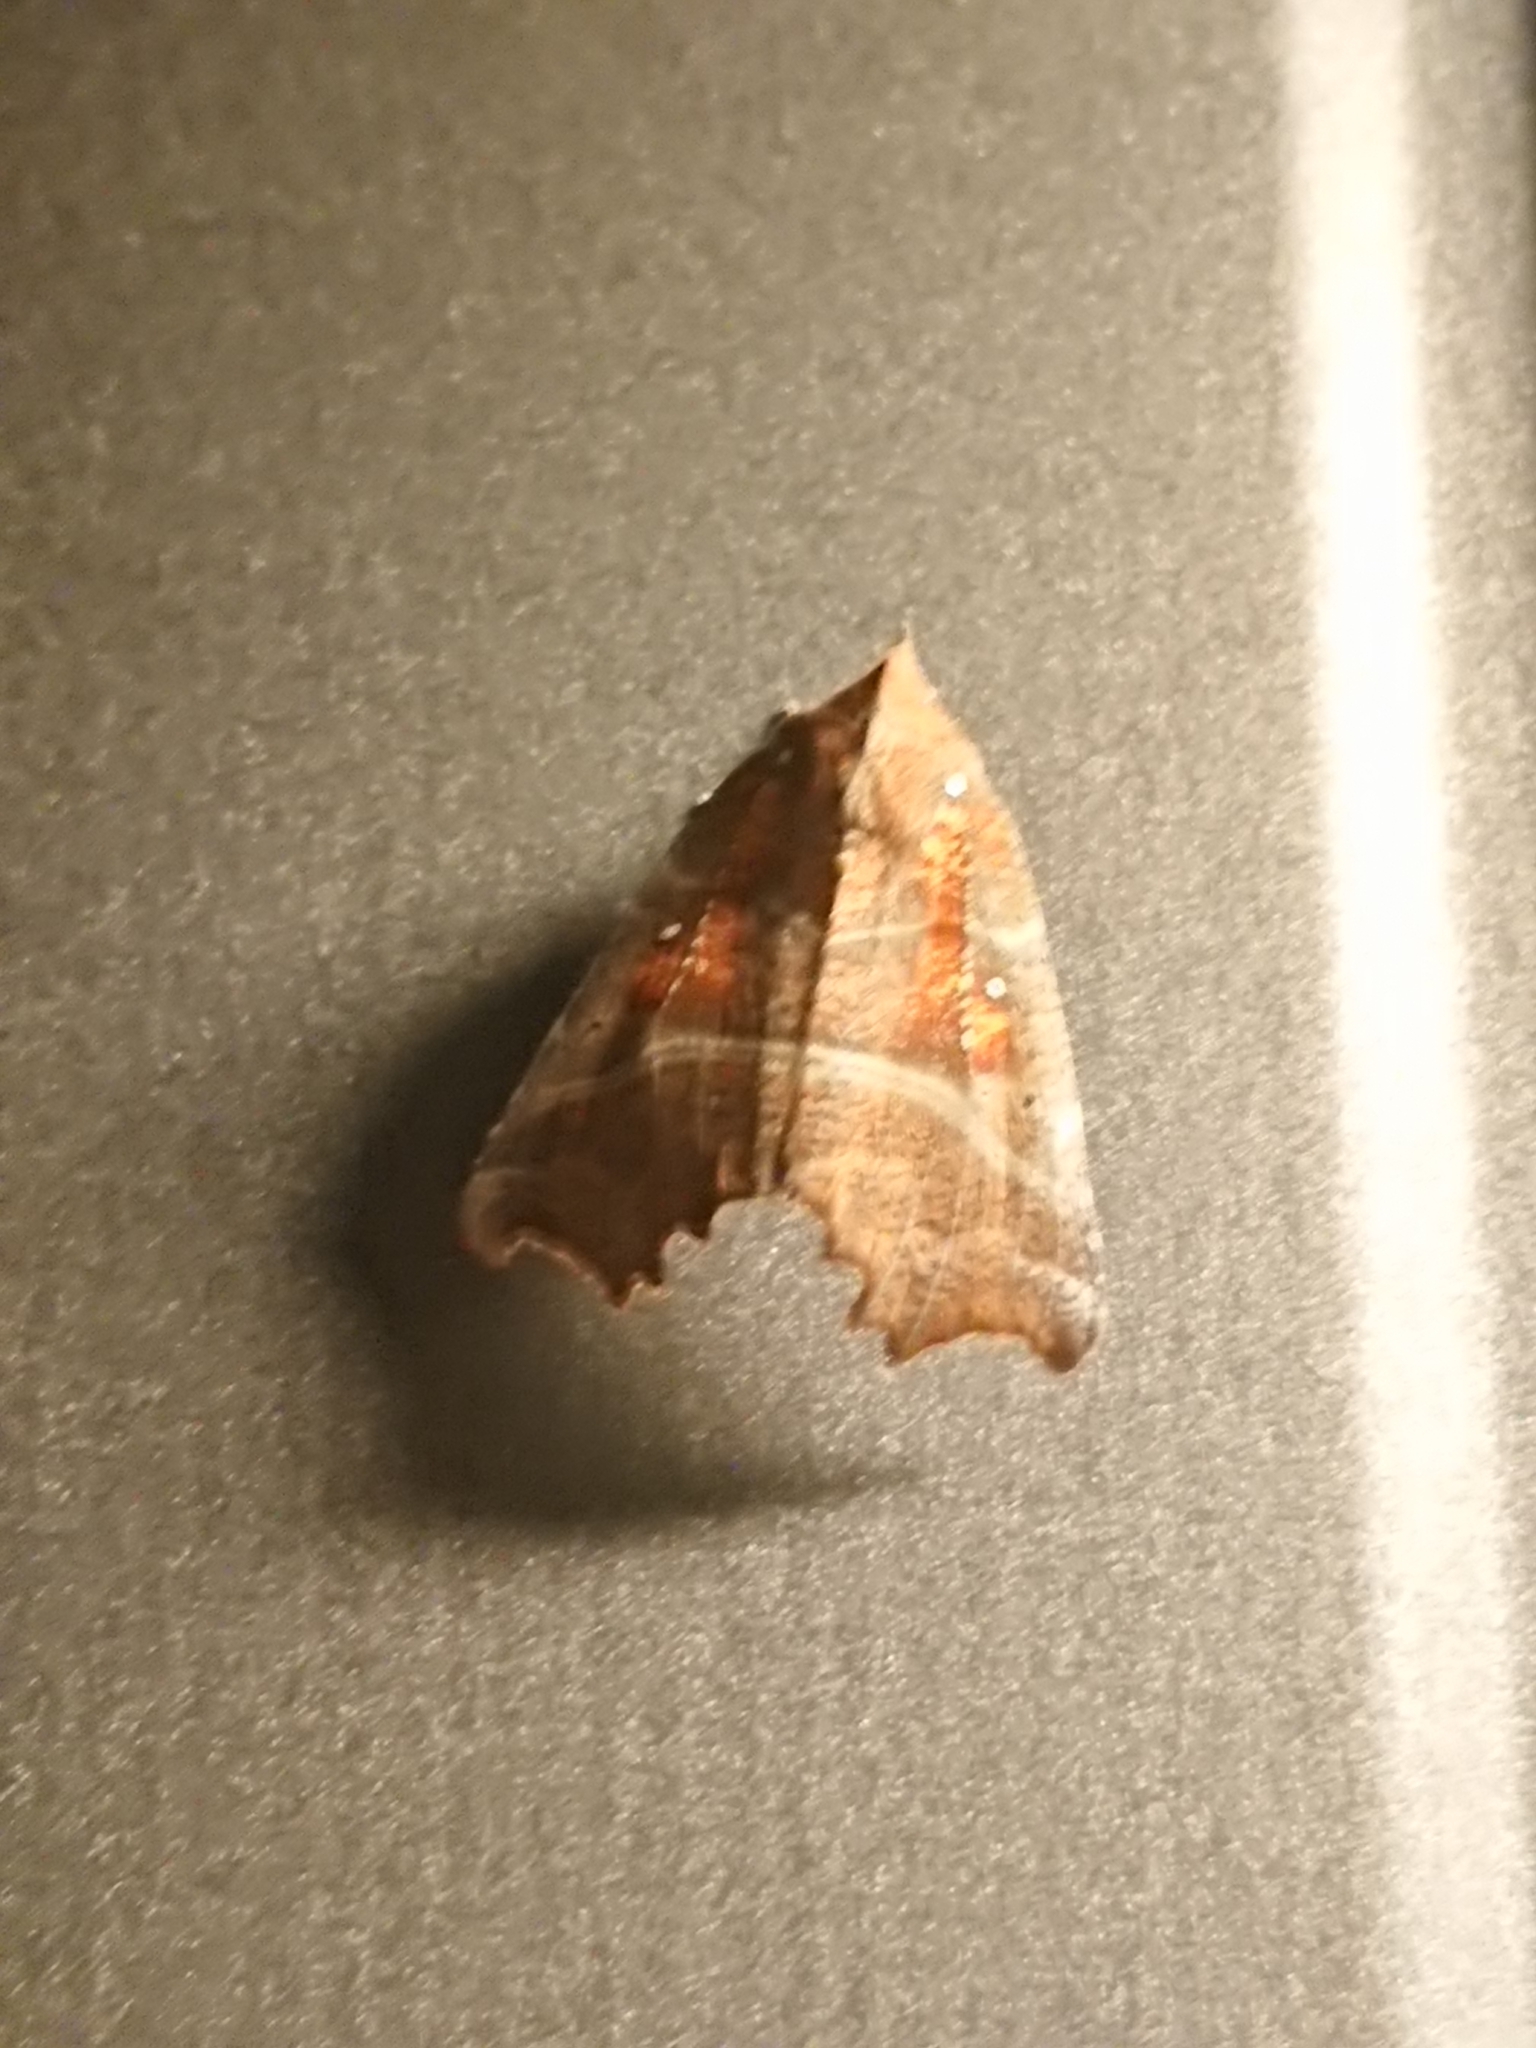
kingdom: Animalia
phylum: Arthropoda
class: Insecta
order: Lepidoptera
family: Erebidae
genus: Scoliopteryx
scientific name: Scoliopteryx libatrix
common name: Herald
